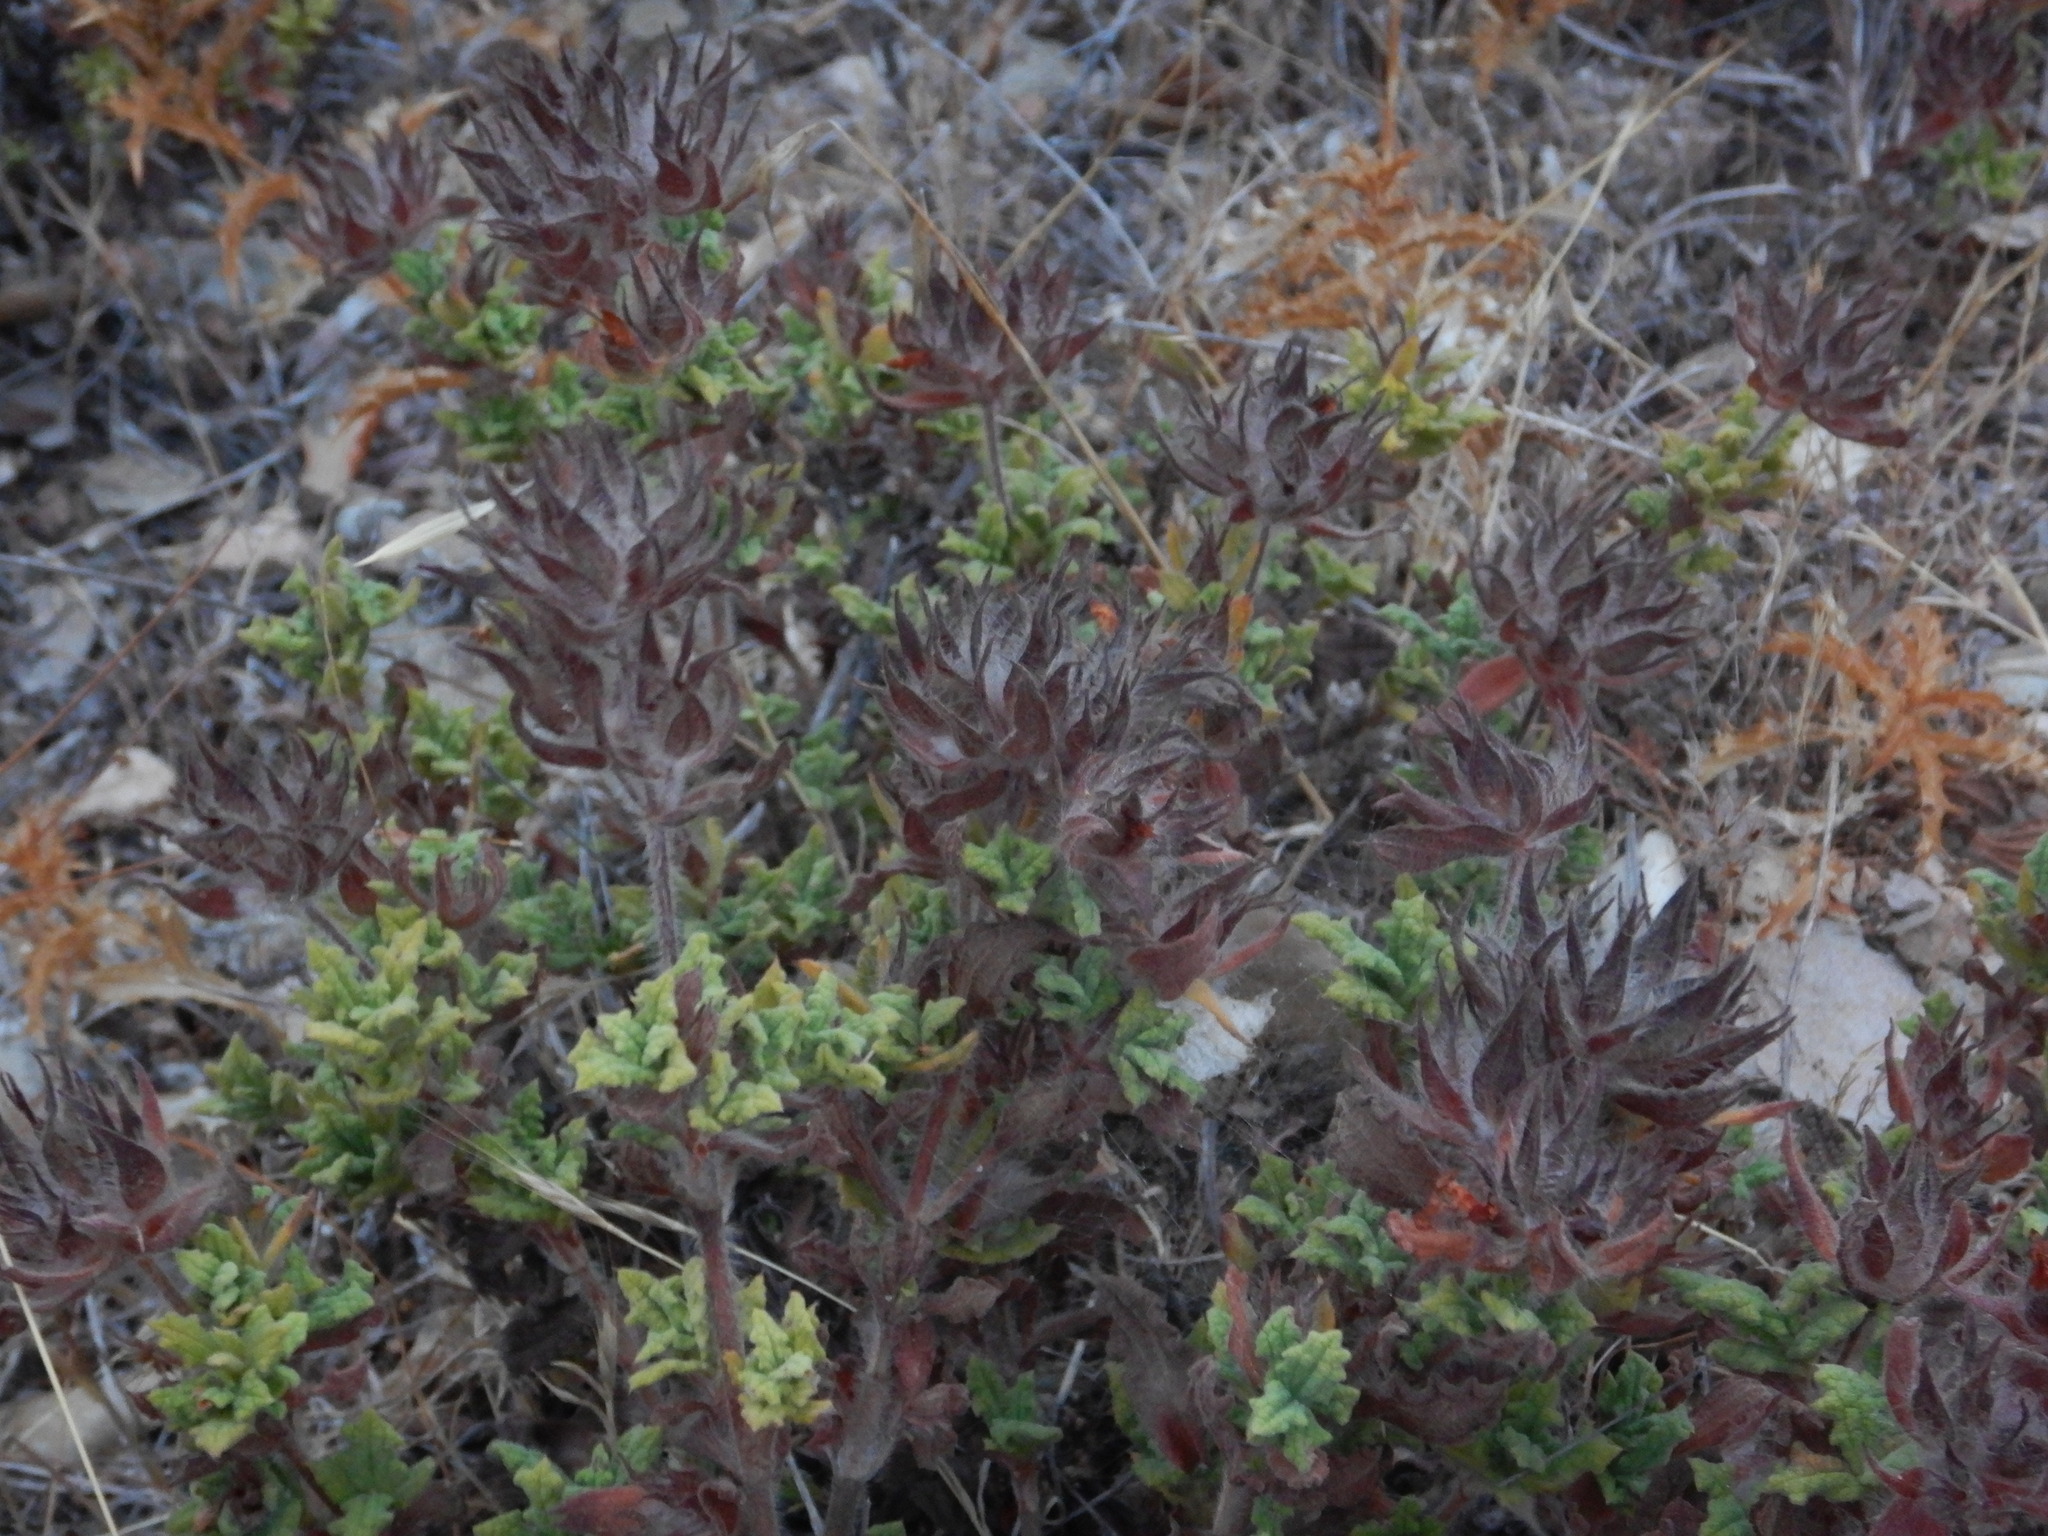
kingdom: Plantae
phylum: Tracheophyta
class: Magnoliopsida
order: Malvales
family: Cistaceae
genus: Cistus
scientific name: Cistus crispus
